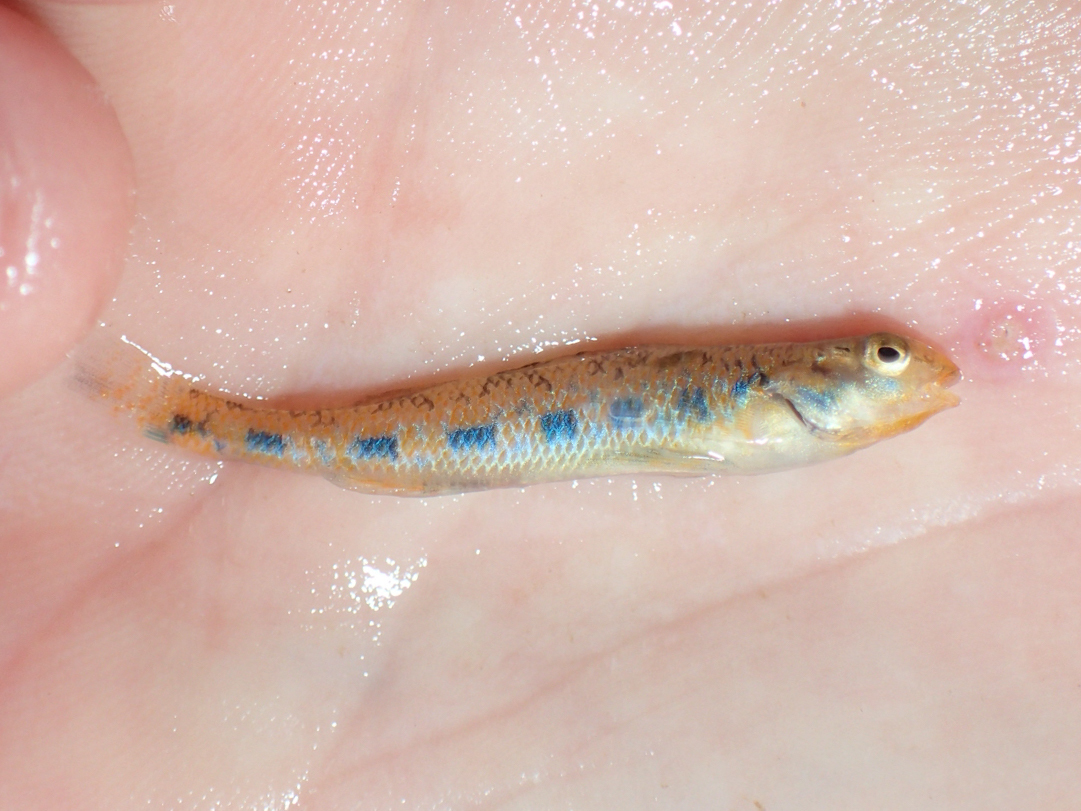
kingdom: Animalia
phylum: Chordata
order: Perciformes
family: Percidae
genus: Etheostoma
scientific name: Etheostoma jimmycarter
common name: Bluegrass darter
